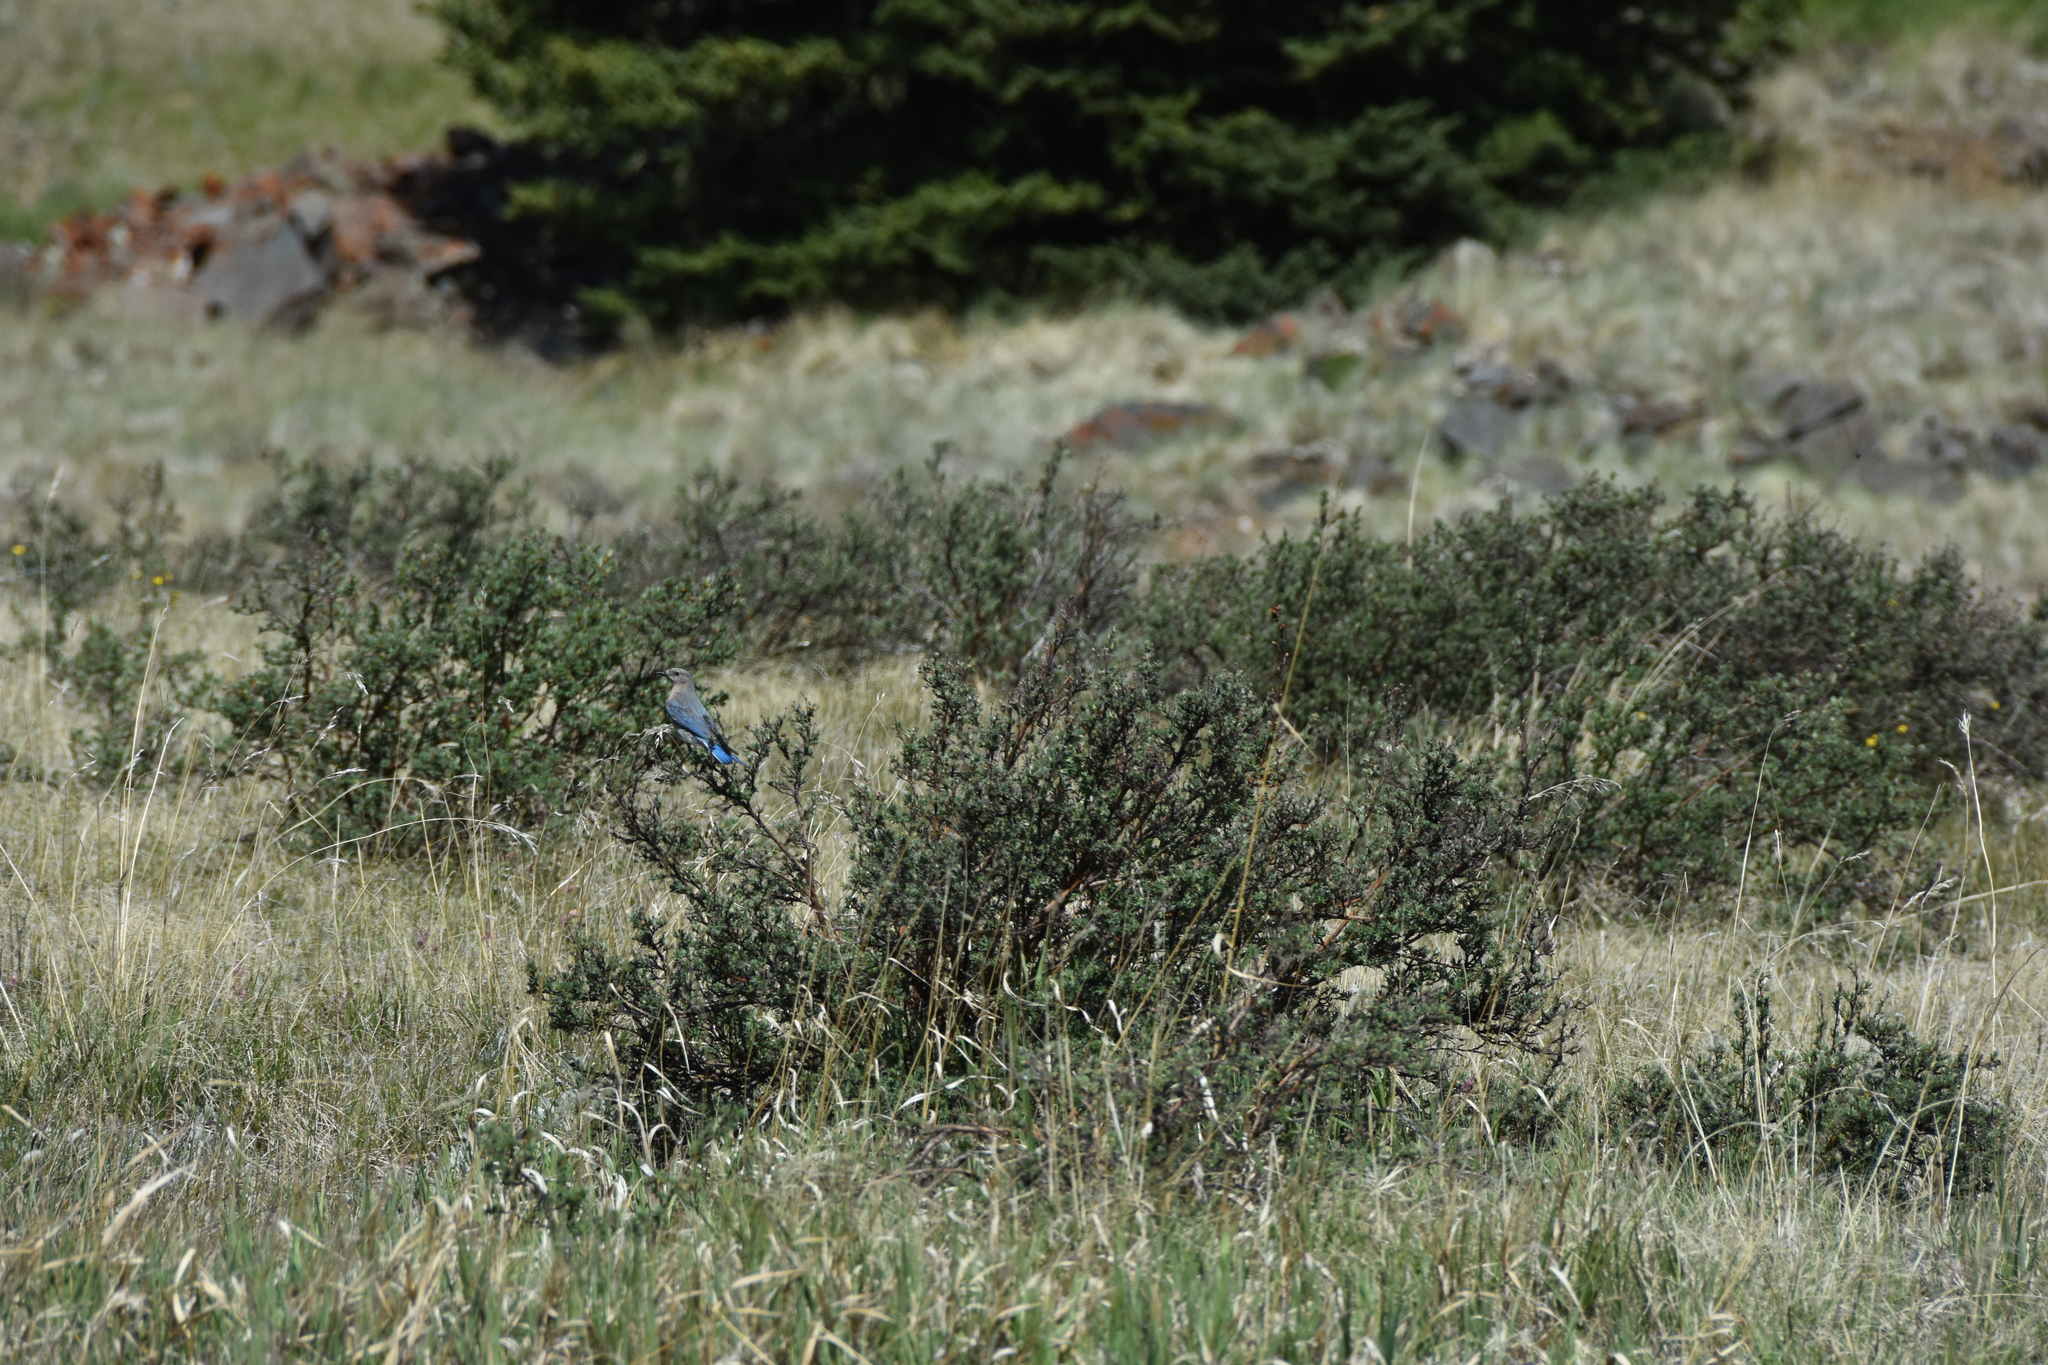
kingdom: Animalia
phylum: Chordata
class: Aves
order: Passeriformes
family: Turdidae
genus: Sialia
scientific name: Sialia currucoides
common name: Mountain bluebird
